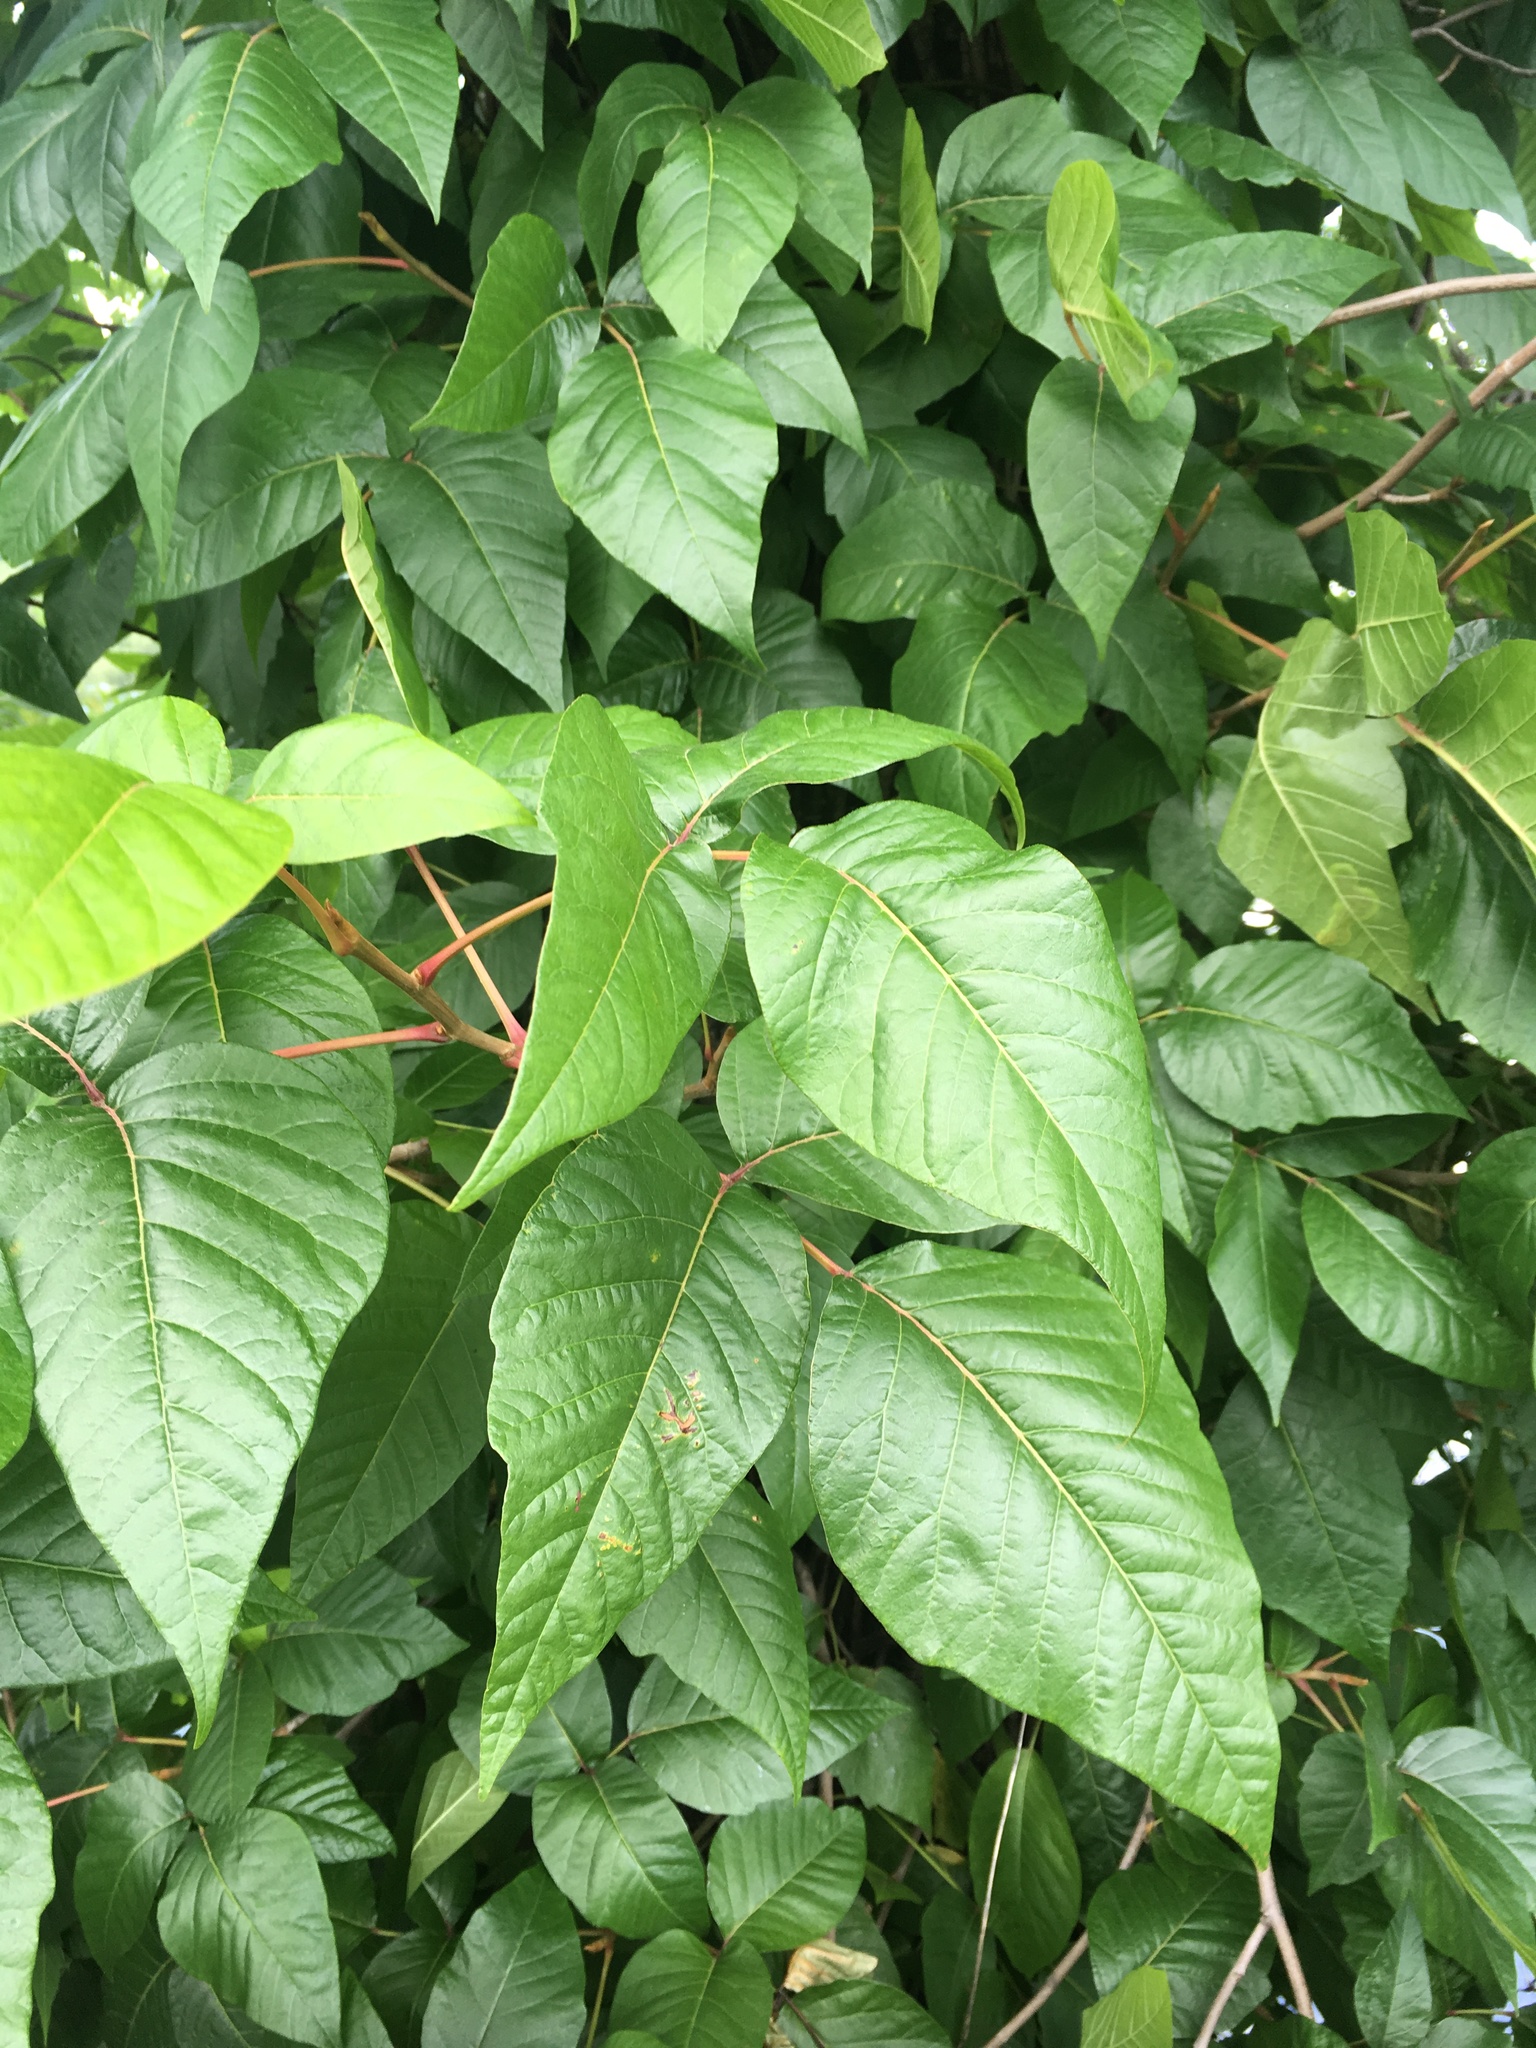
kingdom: Plantae
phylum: Tracheophyta
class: Magnoliopsida
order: Sapindales
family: Anacardiaceae
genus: Toxicodendron
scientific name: Toxicodendron radicans
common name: Poison ivy
